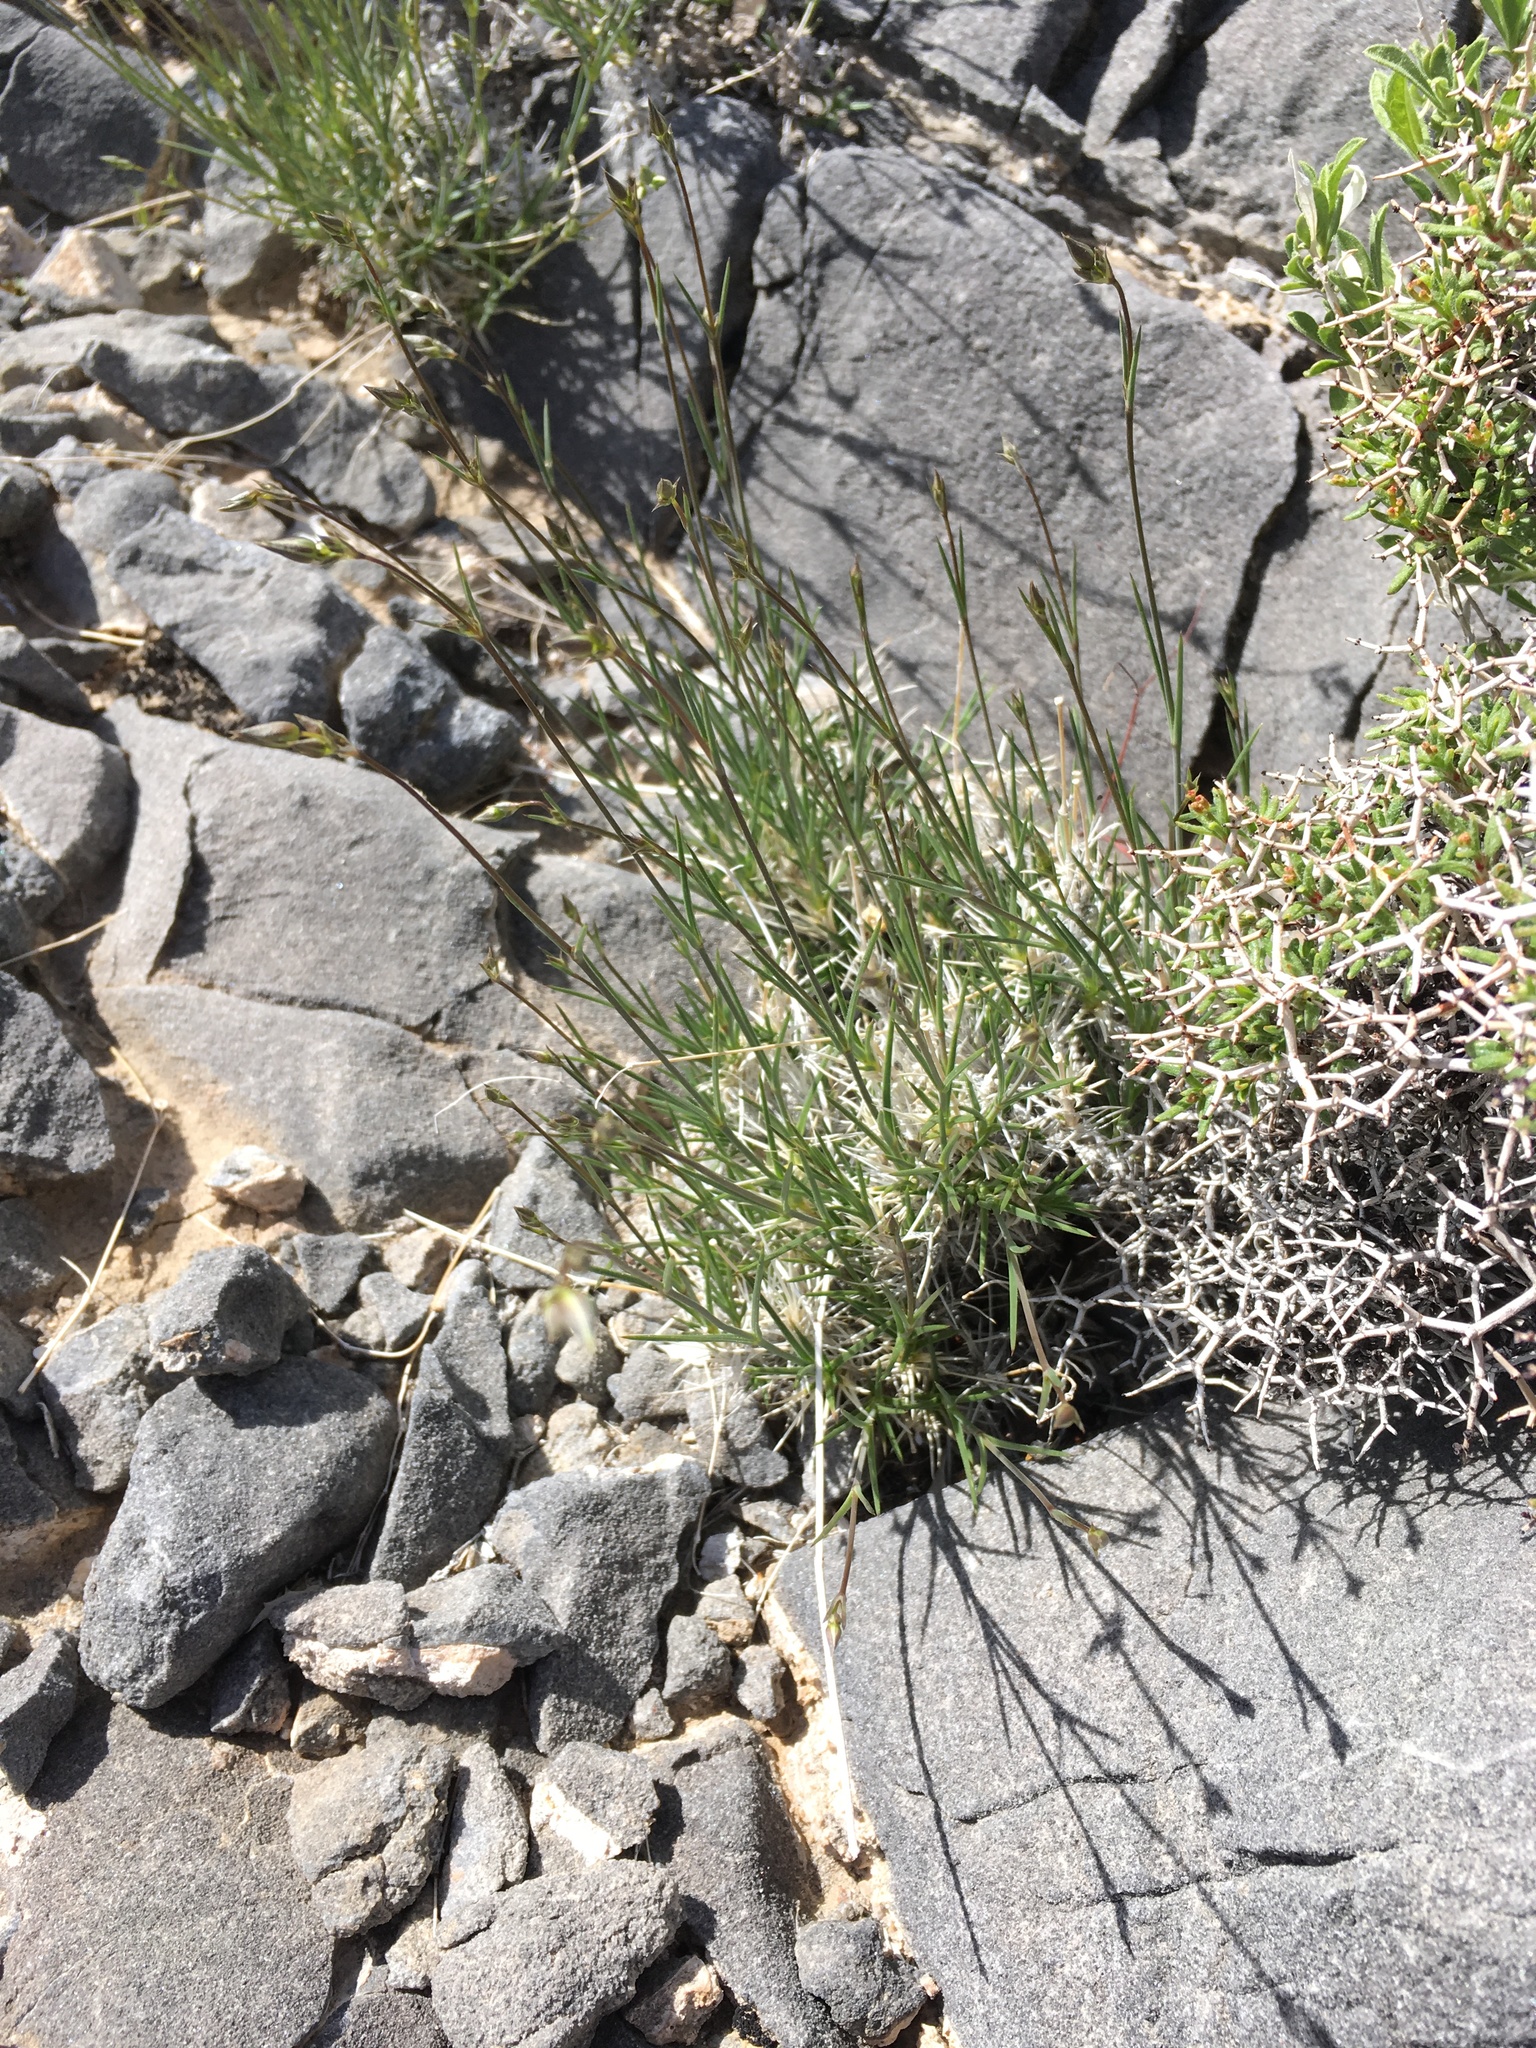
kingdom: Plantae
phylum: Tracheophyta
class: Magnoliopsida
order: Caryophyllales
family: Caryophyllaceae
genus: Eremogone
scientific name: Eremogone macradenia
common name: Mohave sandwort
